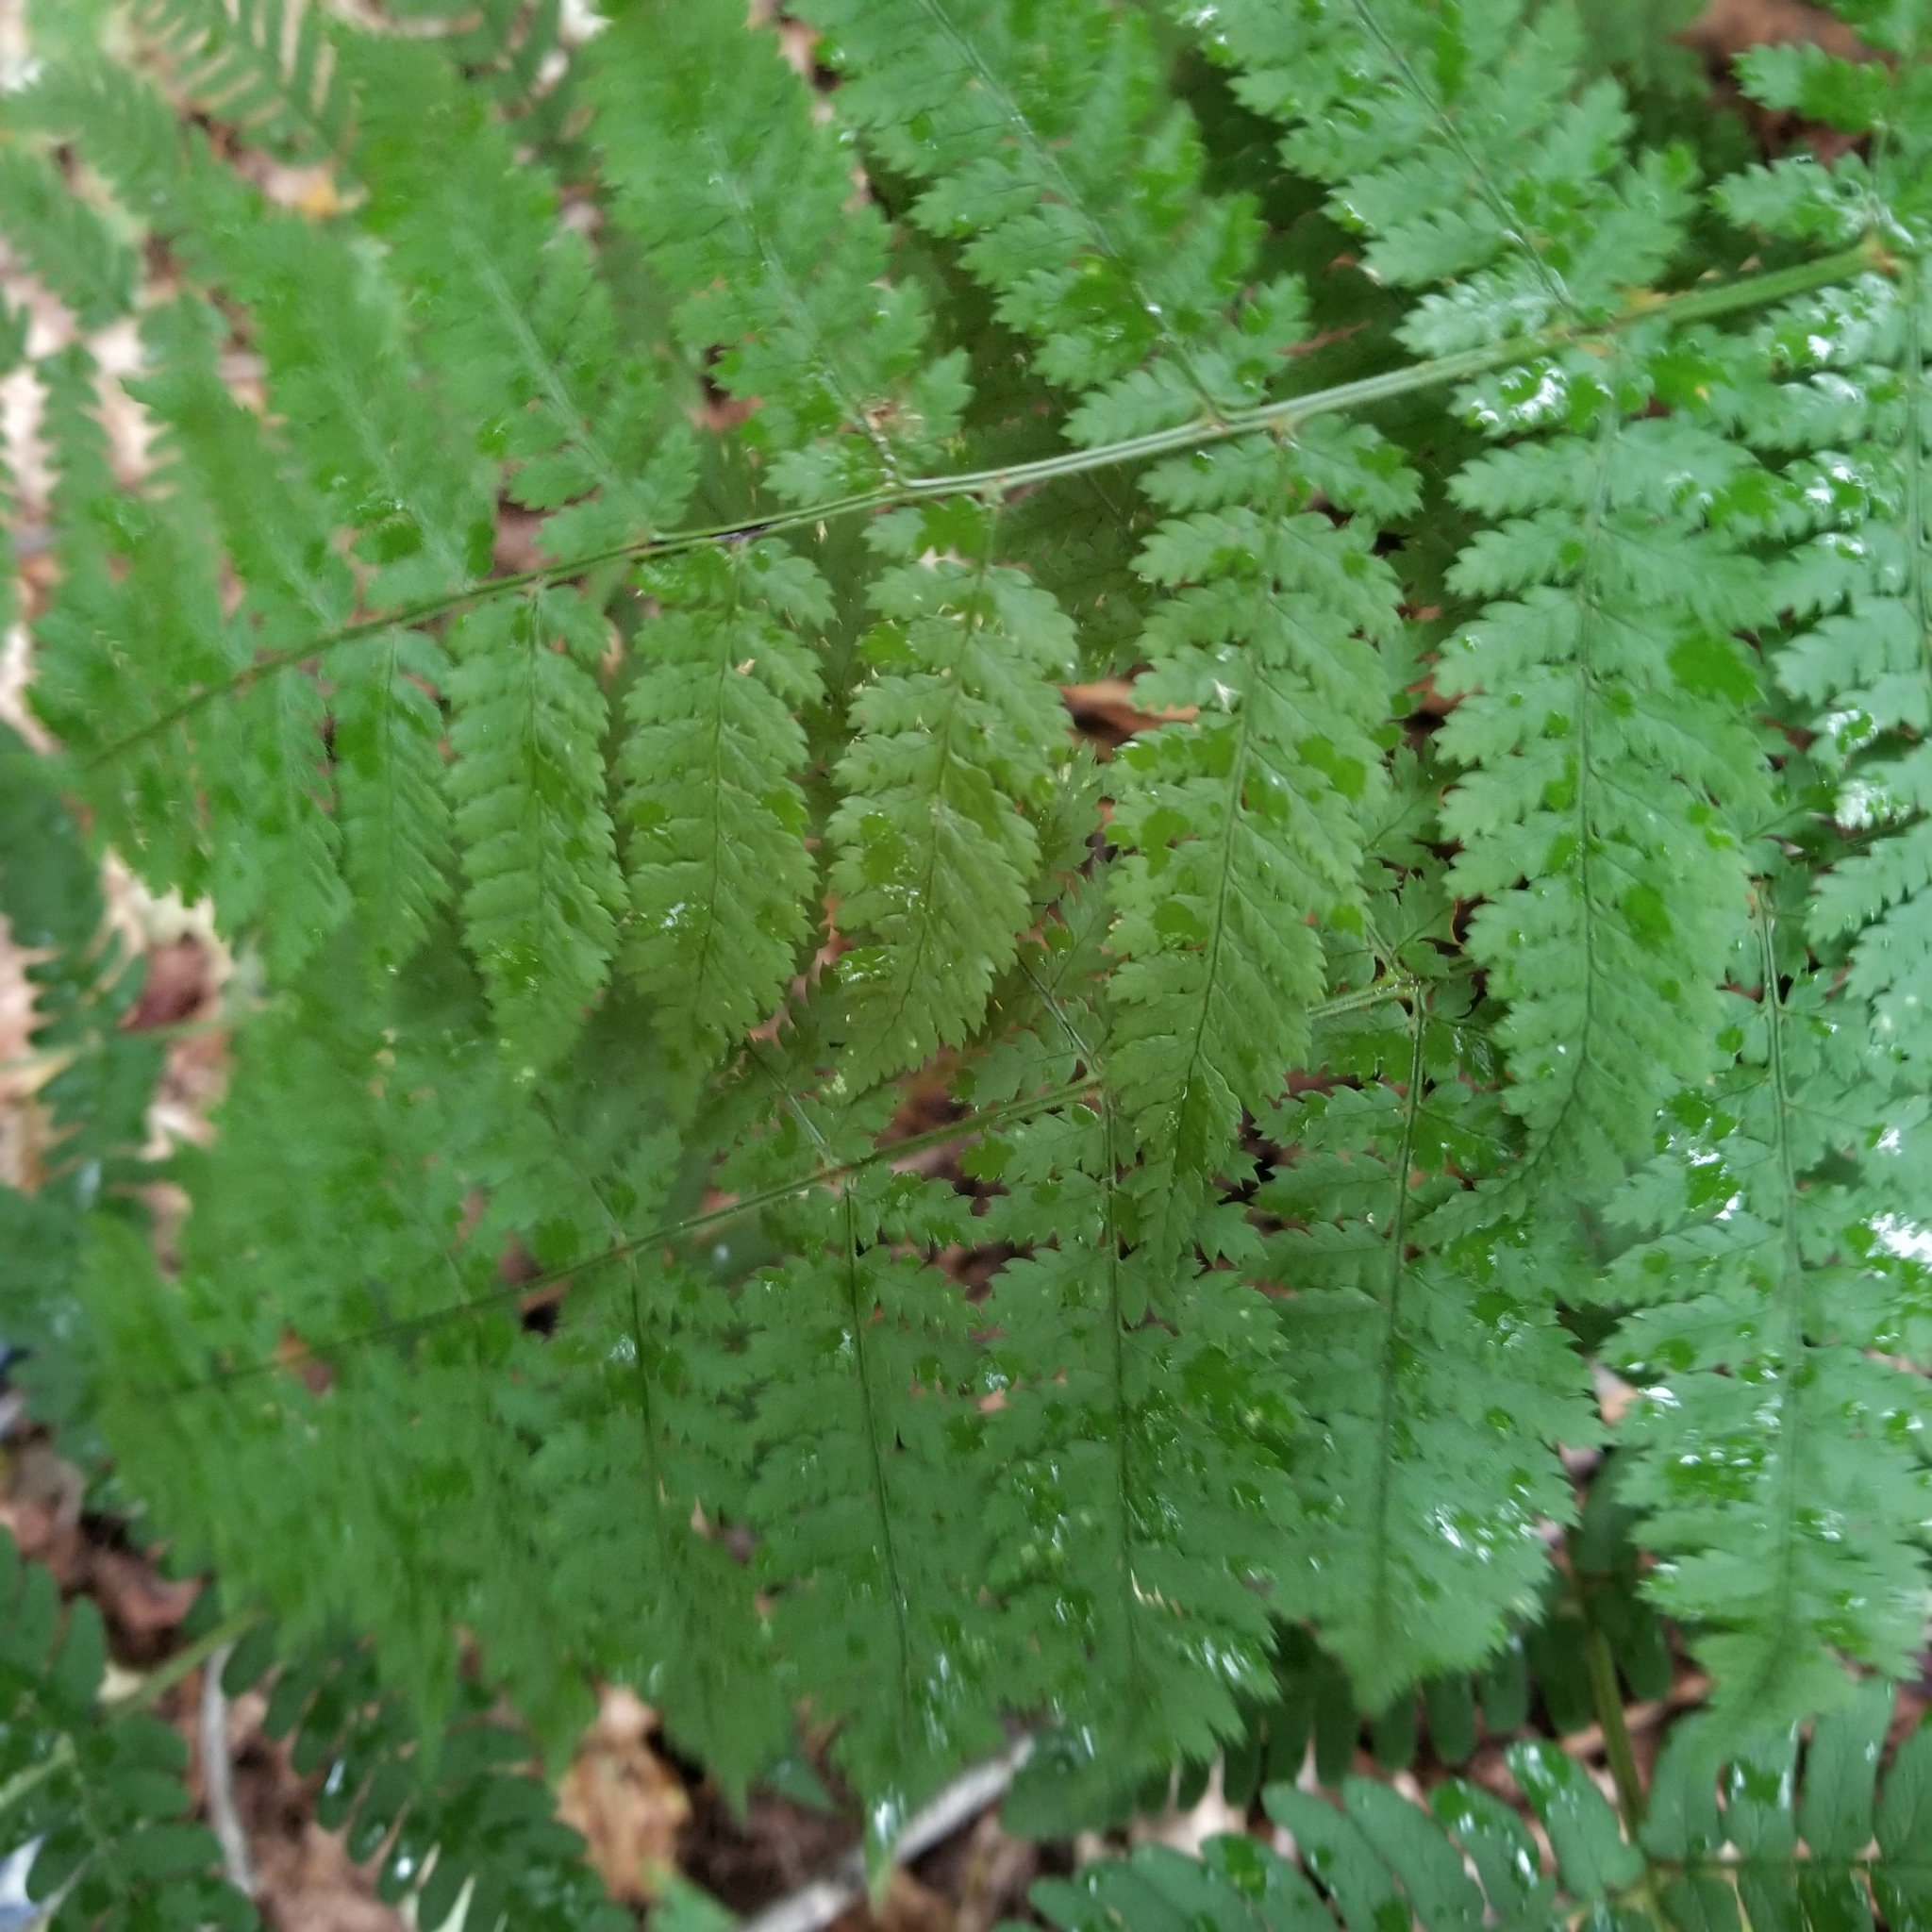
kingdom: Plantae
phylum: Tracheophyta
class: Polypodiopsida
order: Polypodiales
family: Dryopteridaceae
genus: Dryopteris
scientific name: Dryopteris intermedia
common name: Evergreen wood fern
